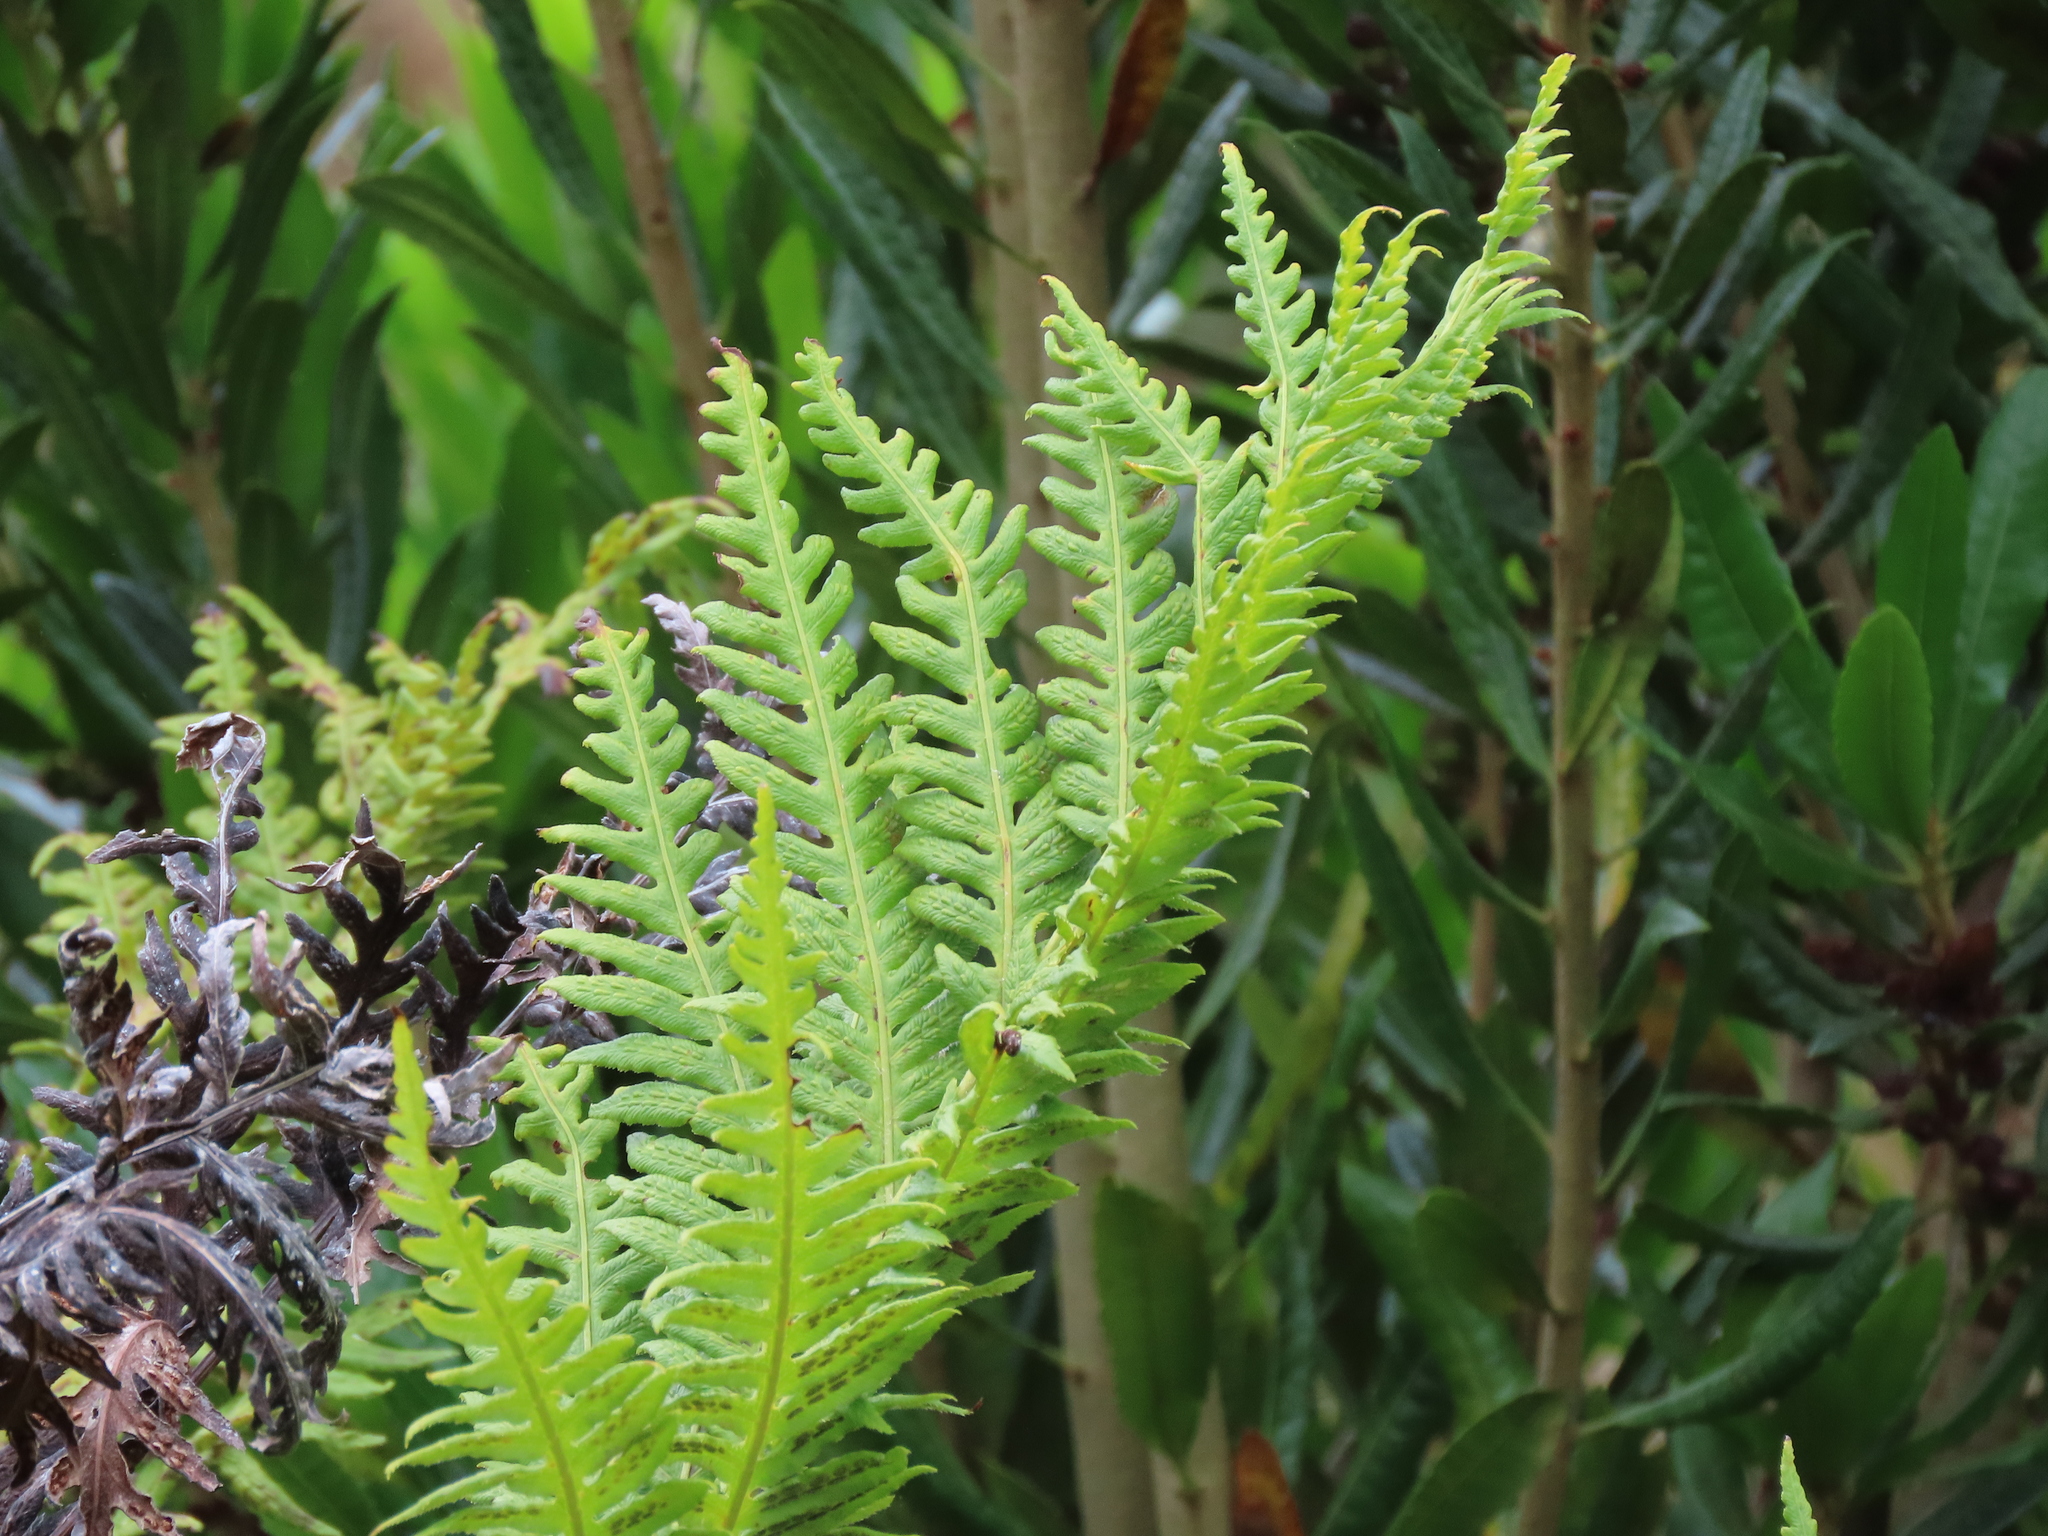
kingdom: Plantae
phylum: Tracheophyta
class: Polypodiopsida
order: Polypodiales
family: Blechnaceae
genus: Woodwardia
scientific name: Woodwardia fimbriata
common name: Giant chain fern
